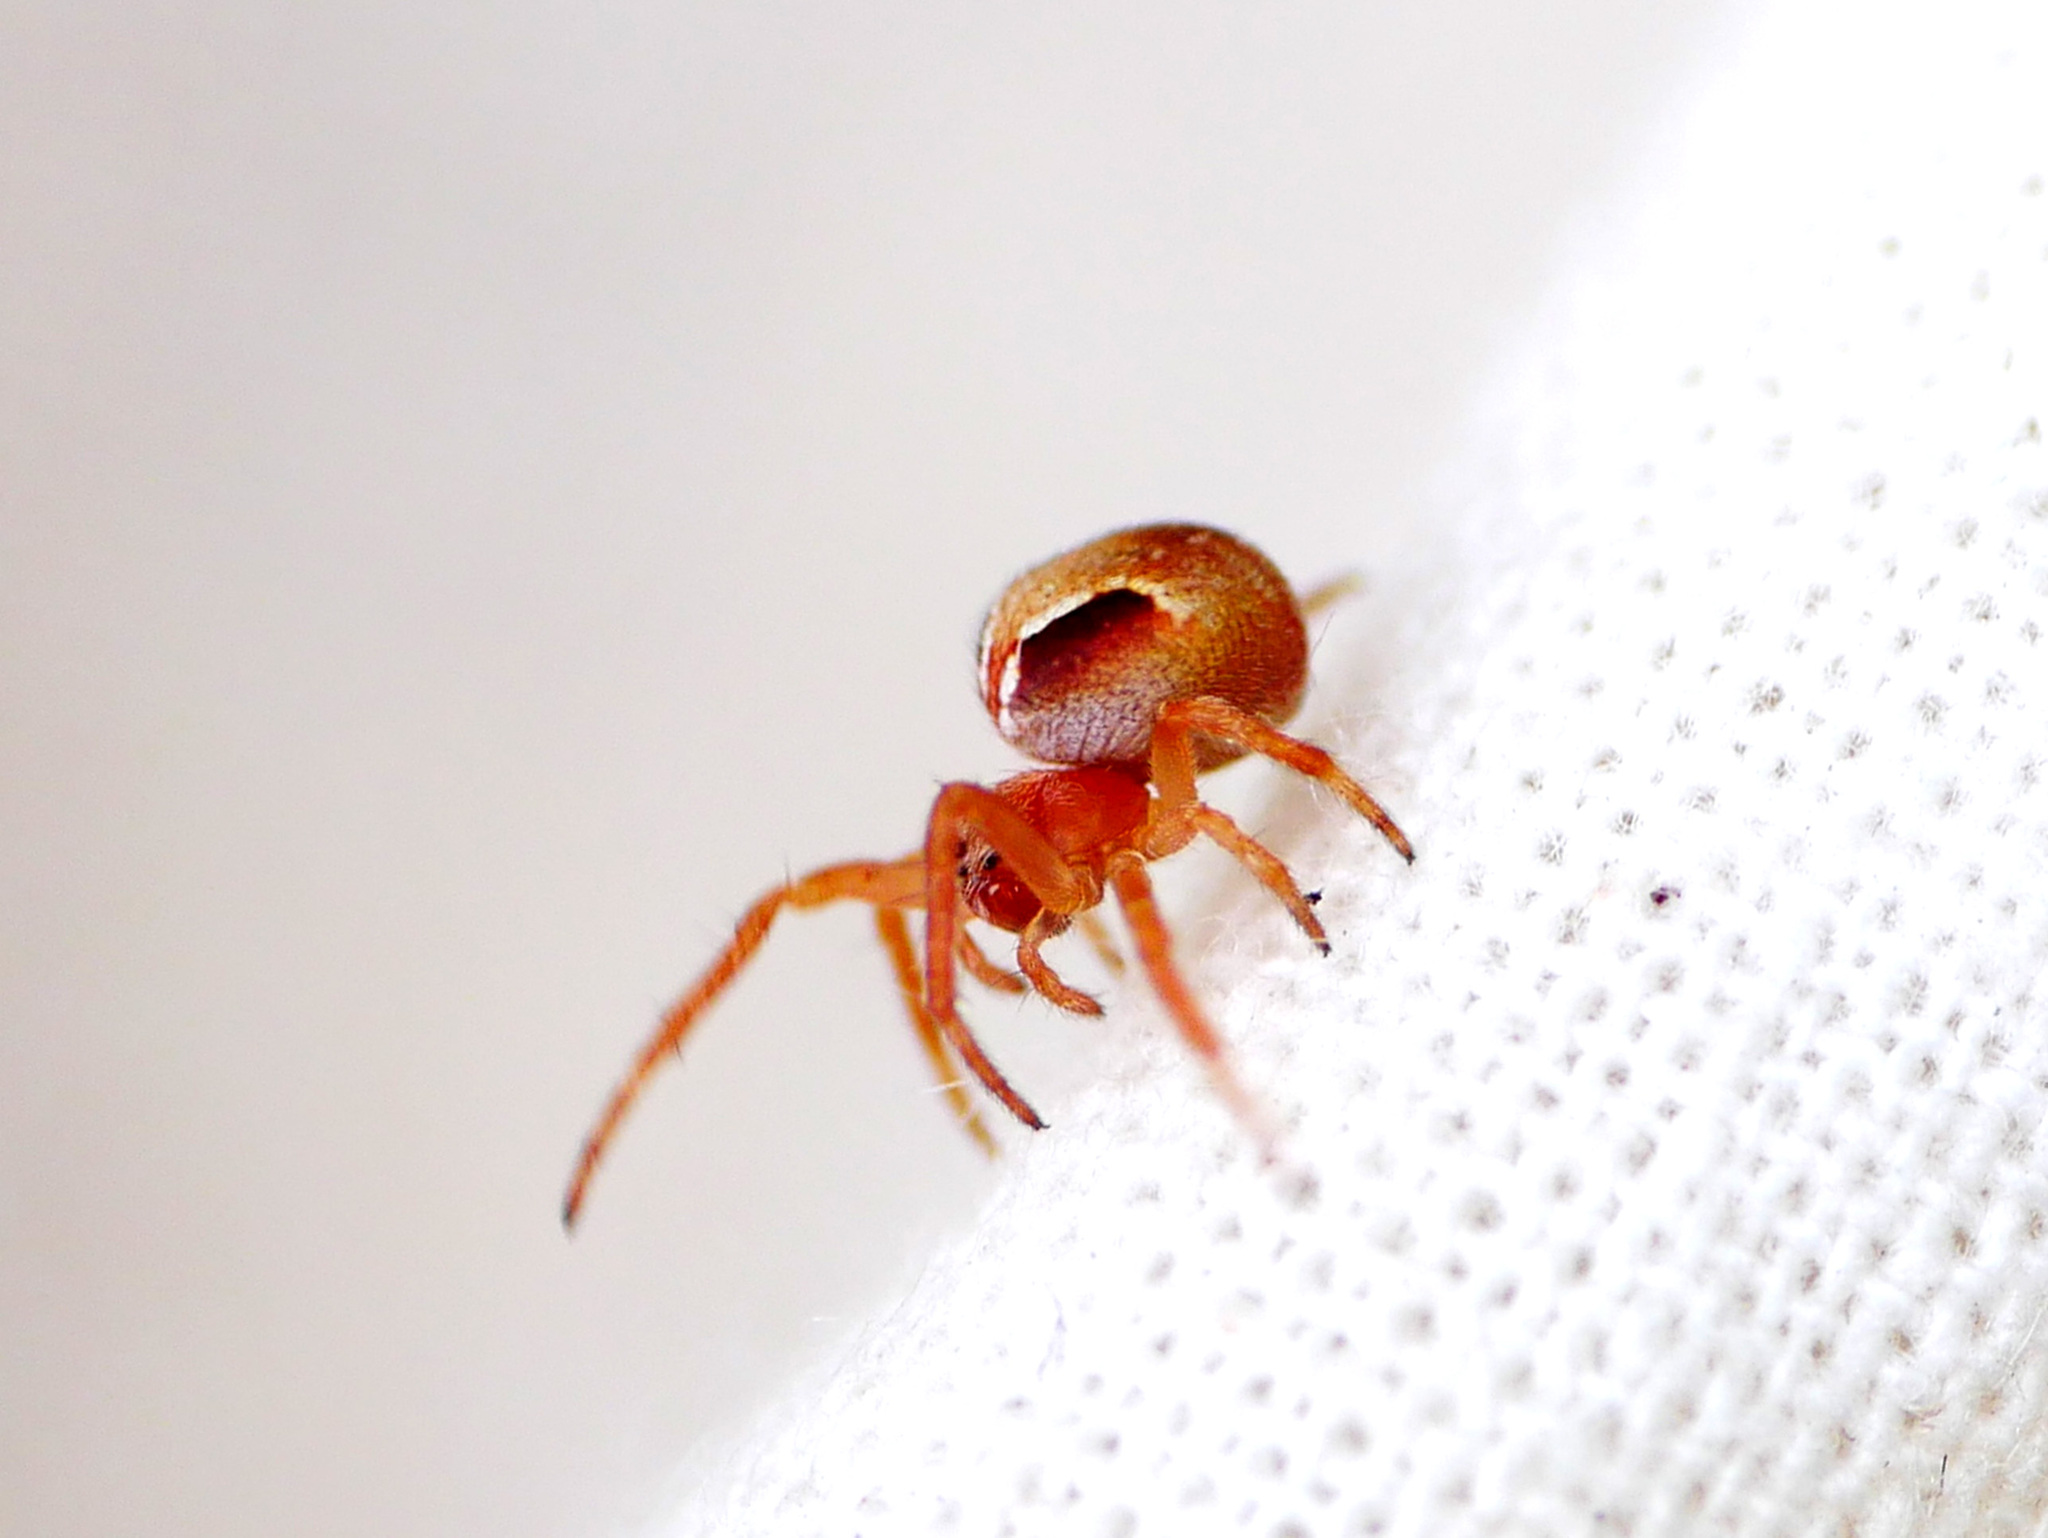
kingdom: Animalia
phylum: Arthropoda
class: Arachnida
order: Araneae
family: Araneidae
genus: Araneus
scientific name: Araneus sturmi
